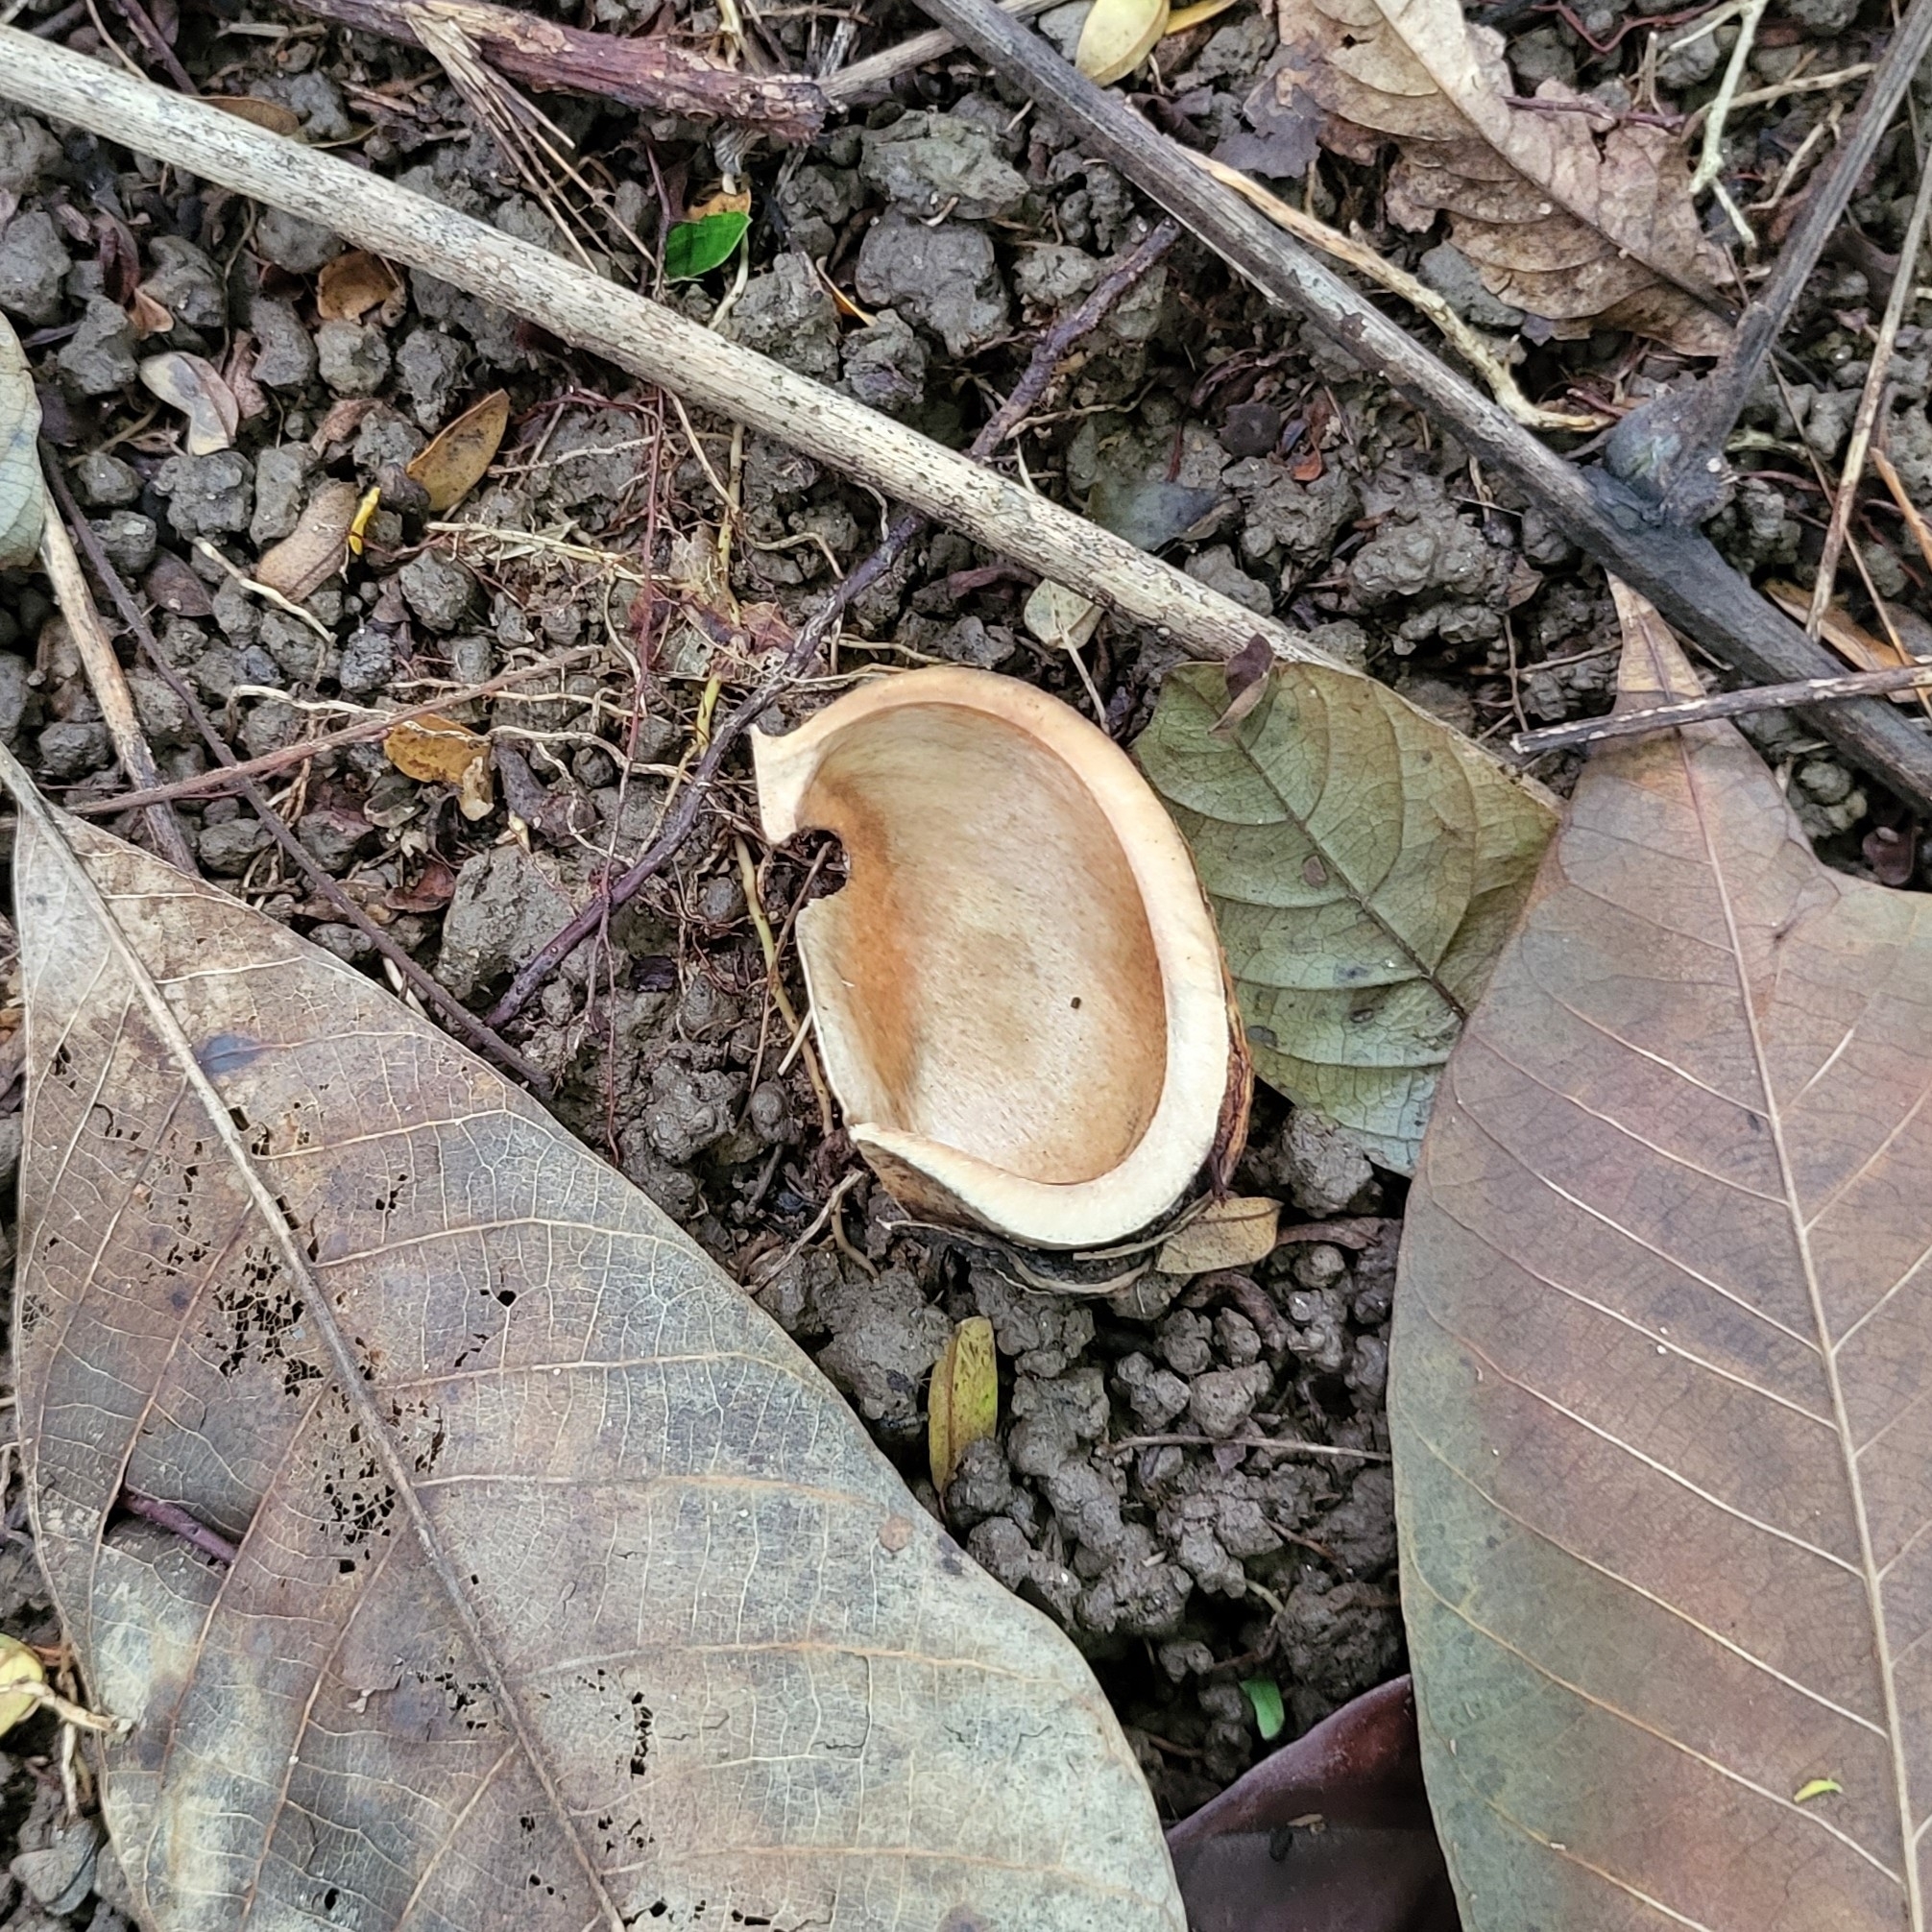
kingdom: Plantae
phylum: Tracheophyta
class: Magnoliopsida
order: Malpighiales
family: Euphorbiaceae
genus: Hevea
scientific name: Hevea brasiliensis
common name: Natural rubber
